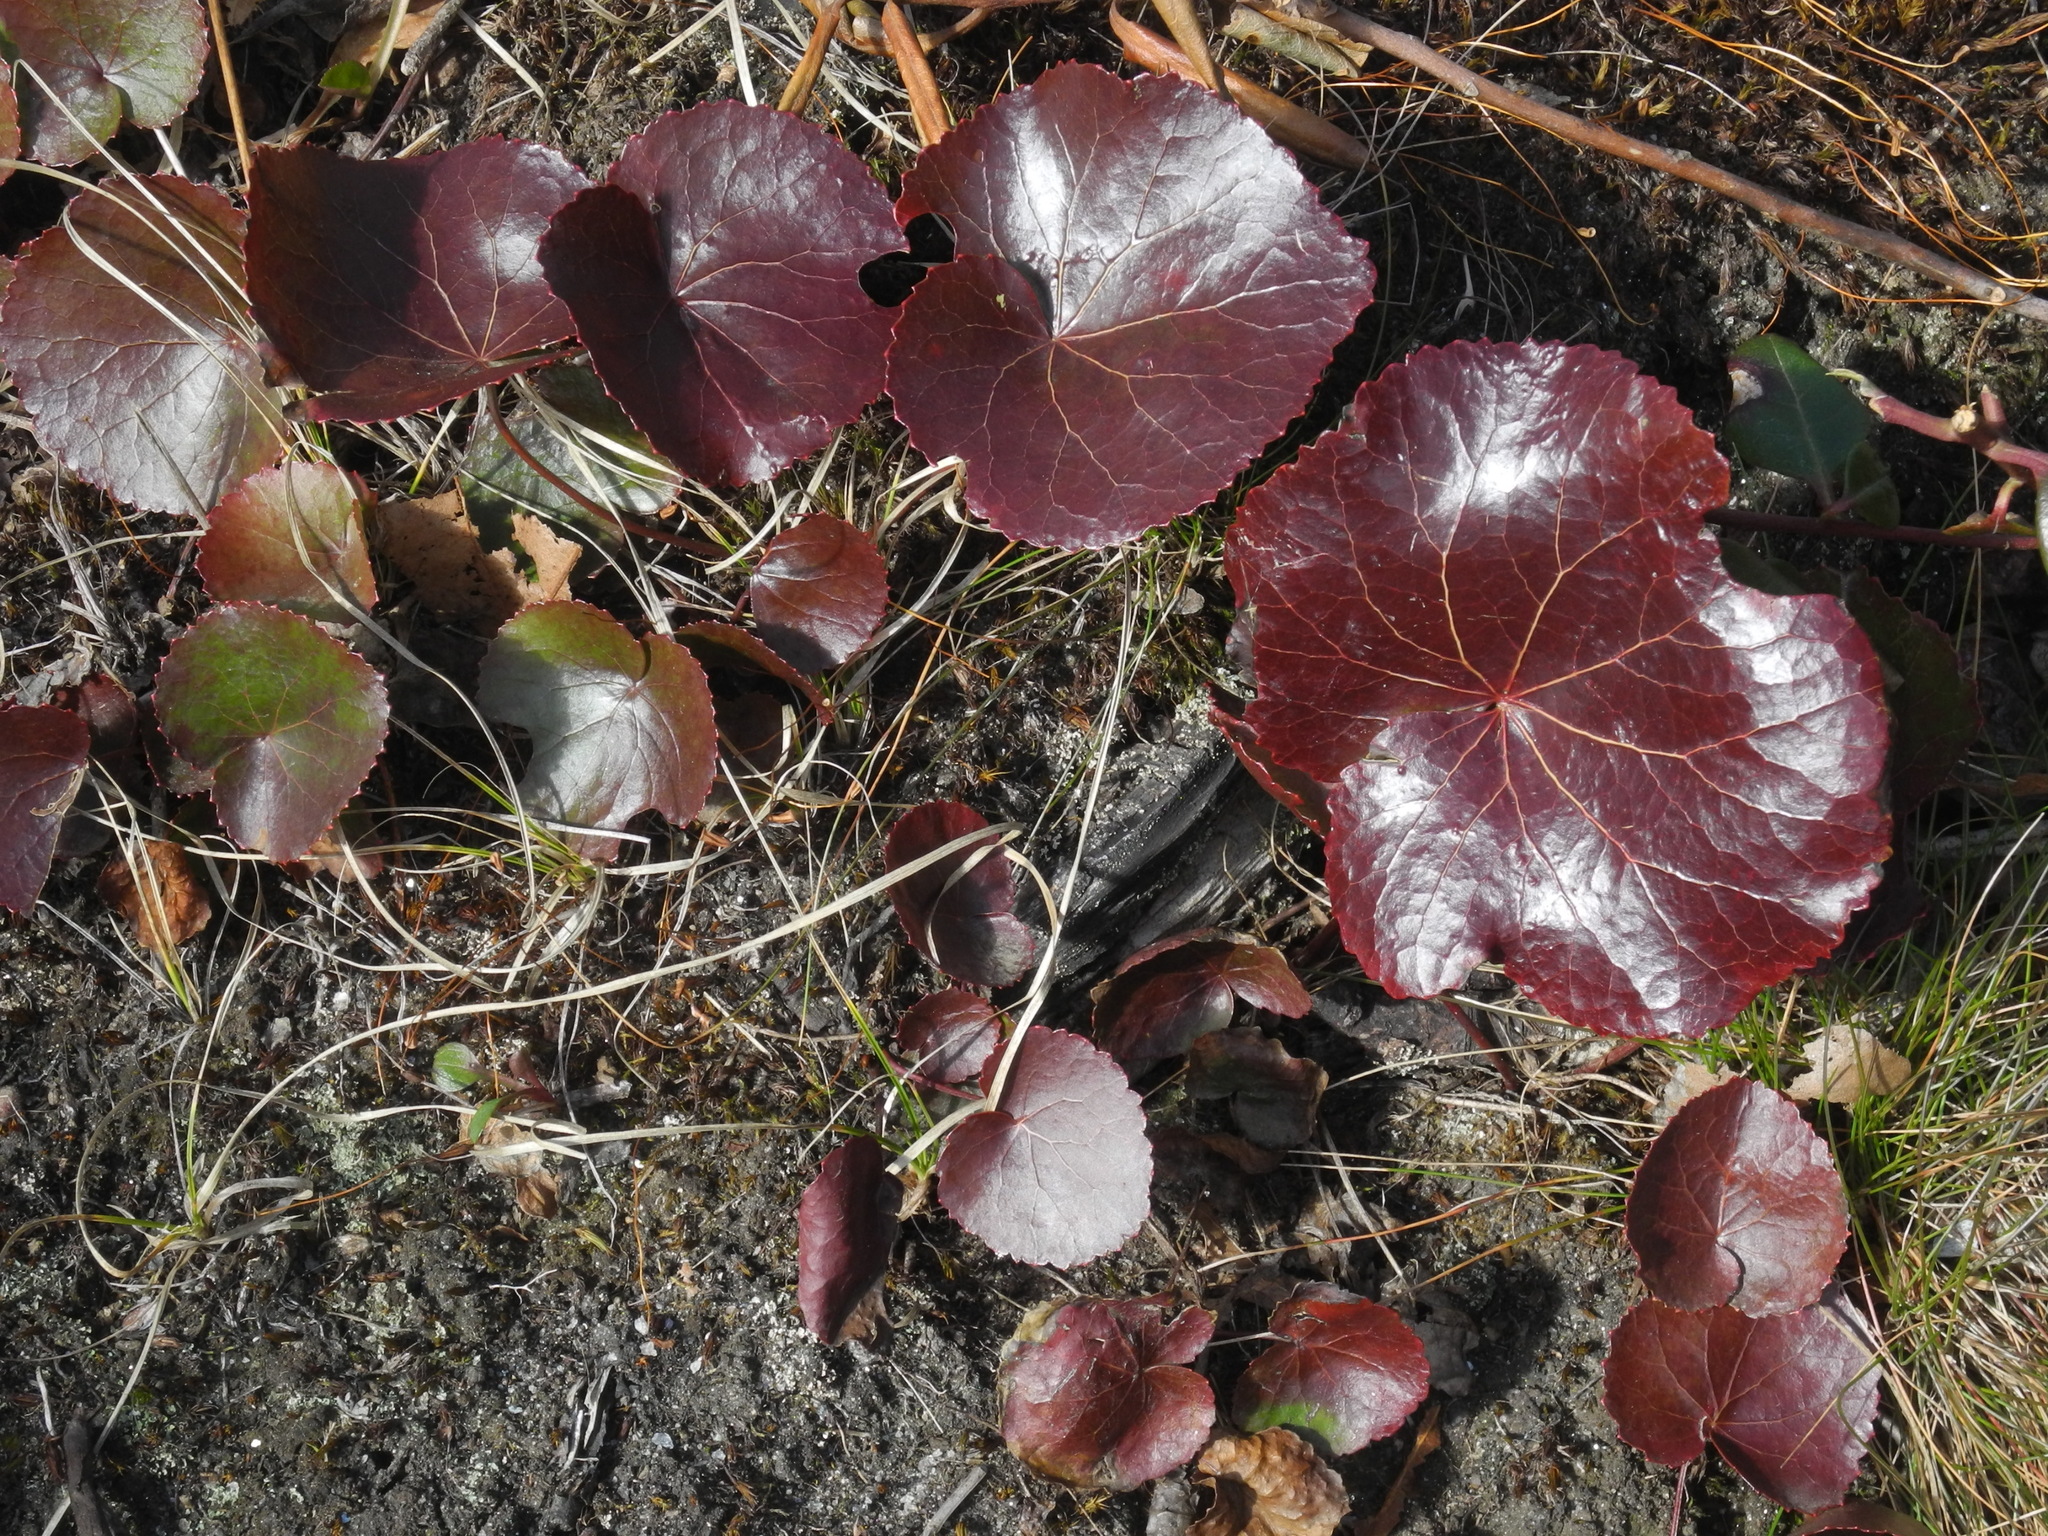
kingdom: Plantae
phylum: Tracheophyta
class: Magnoliopsida
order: Ericales
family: Diapensiaceae
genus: Galax
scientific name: Galax urceolata
